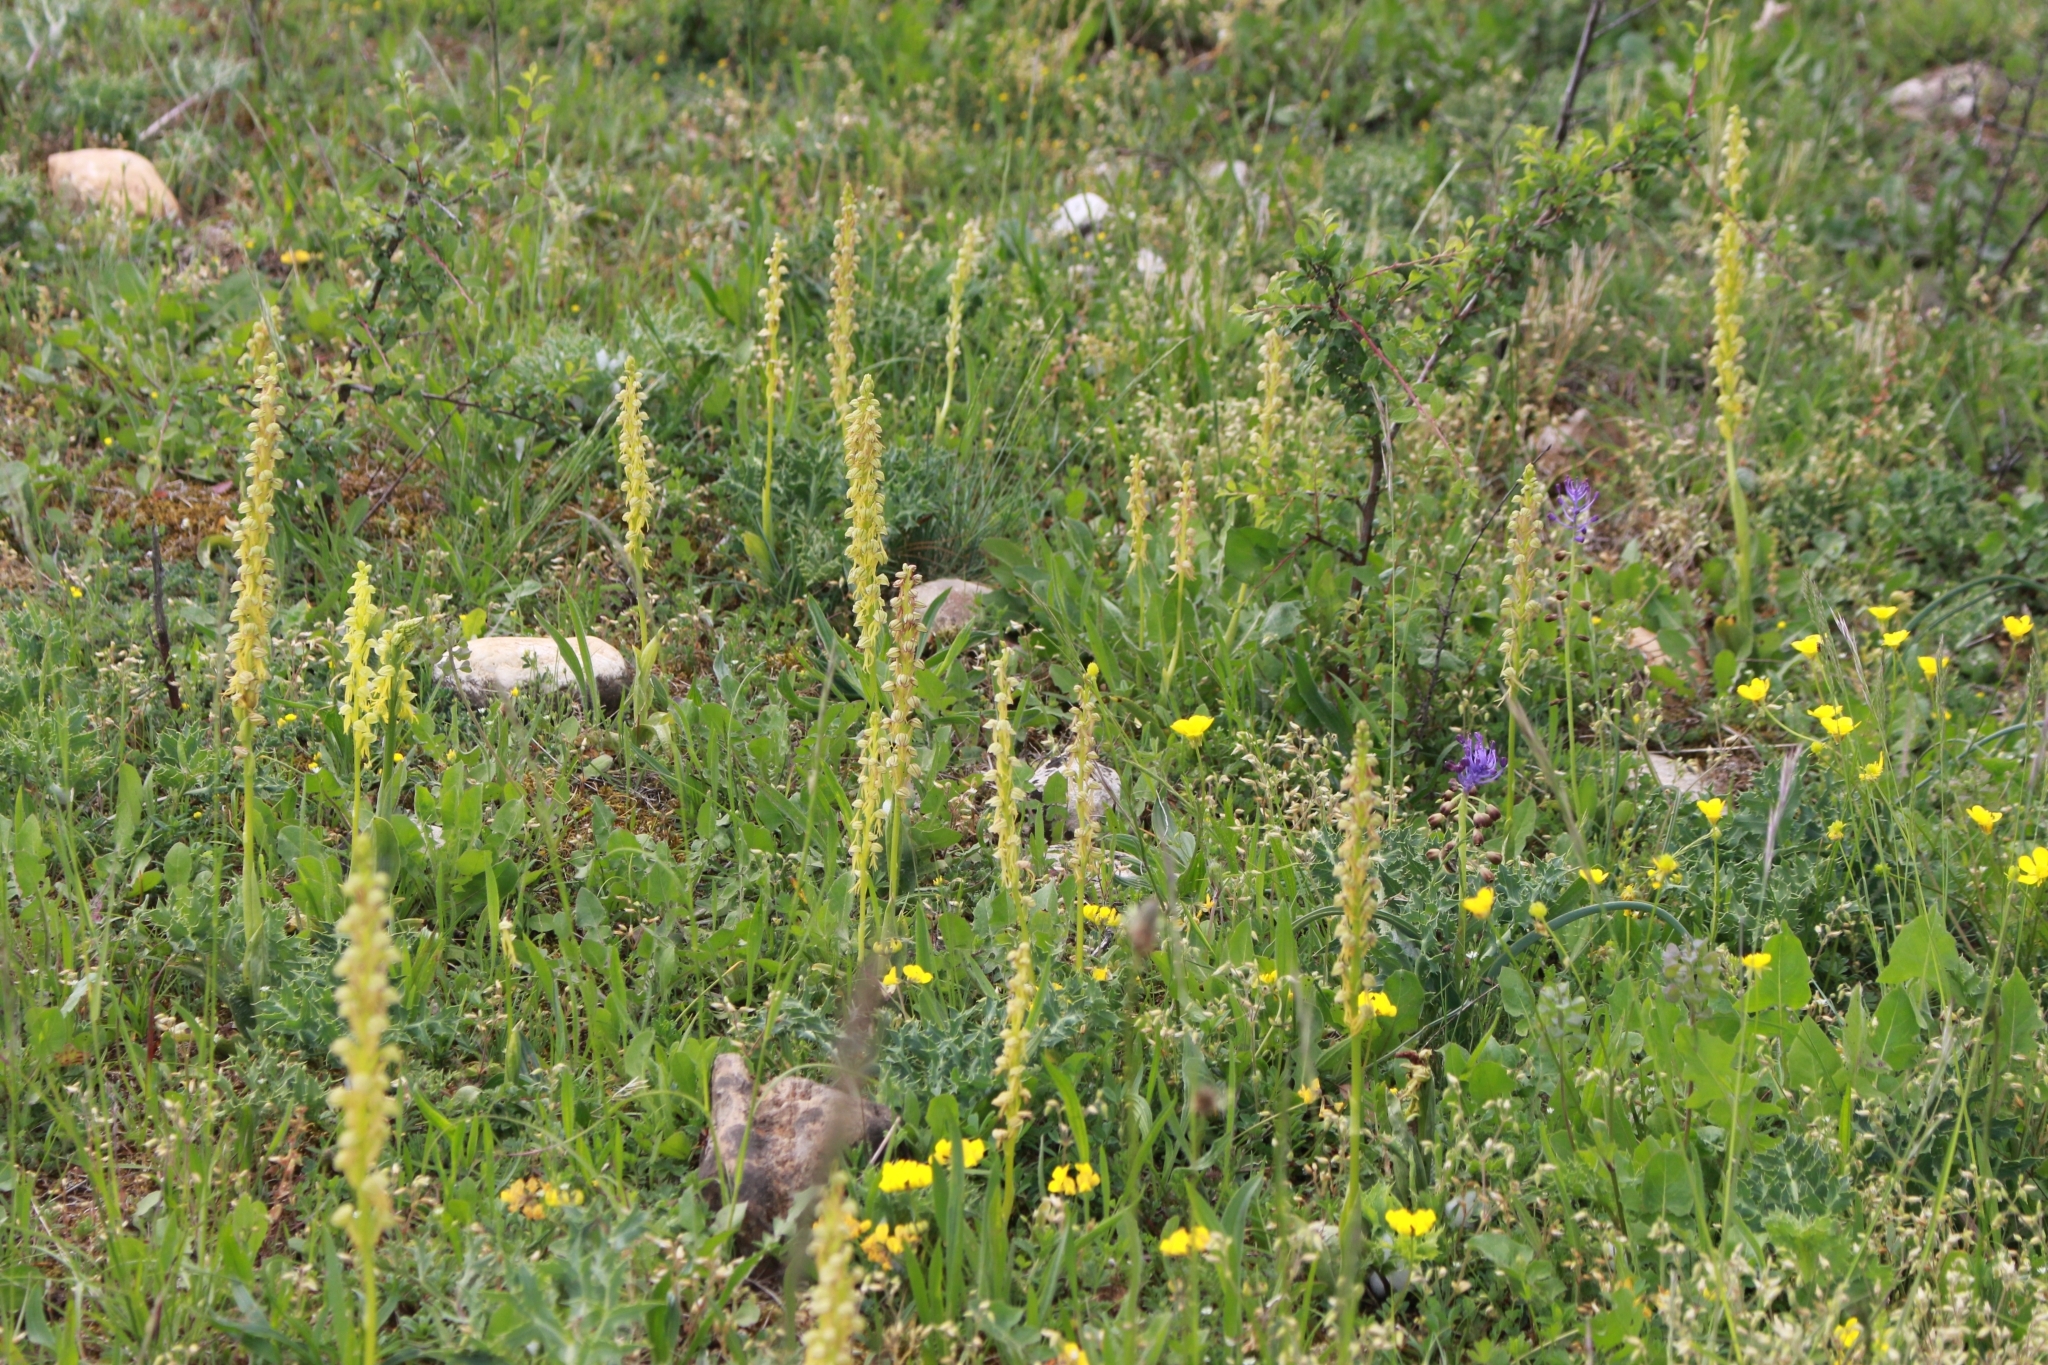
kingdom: Plantae
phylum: Tracheophyta
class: Liliopsida
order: Asparagales
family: Orchidaceae
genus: Orchis
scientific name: Orchis anthropophora
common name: Man orchid
